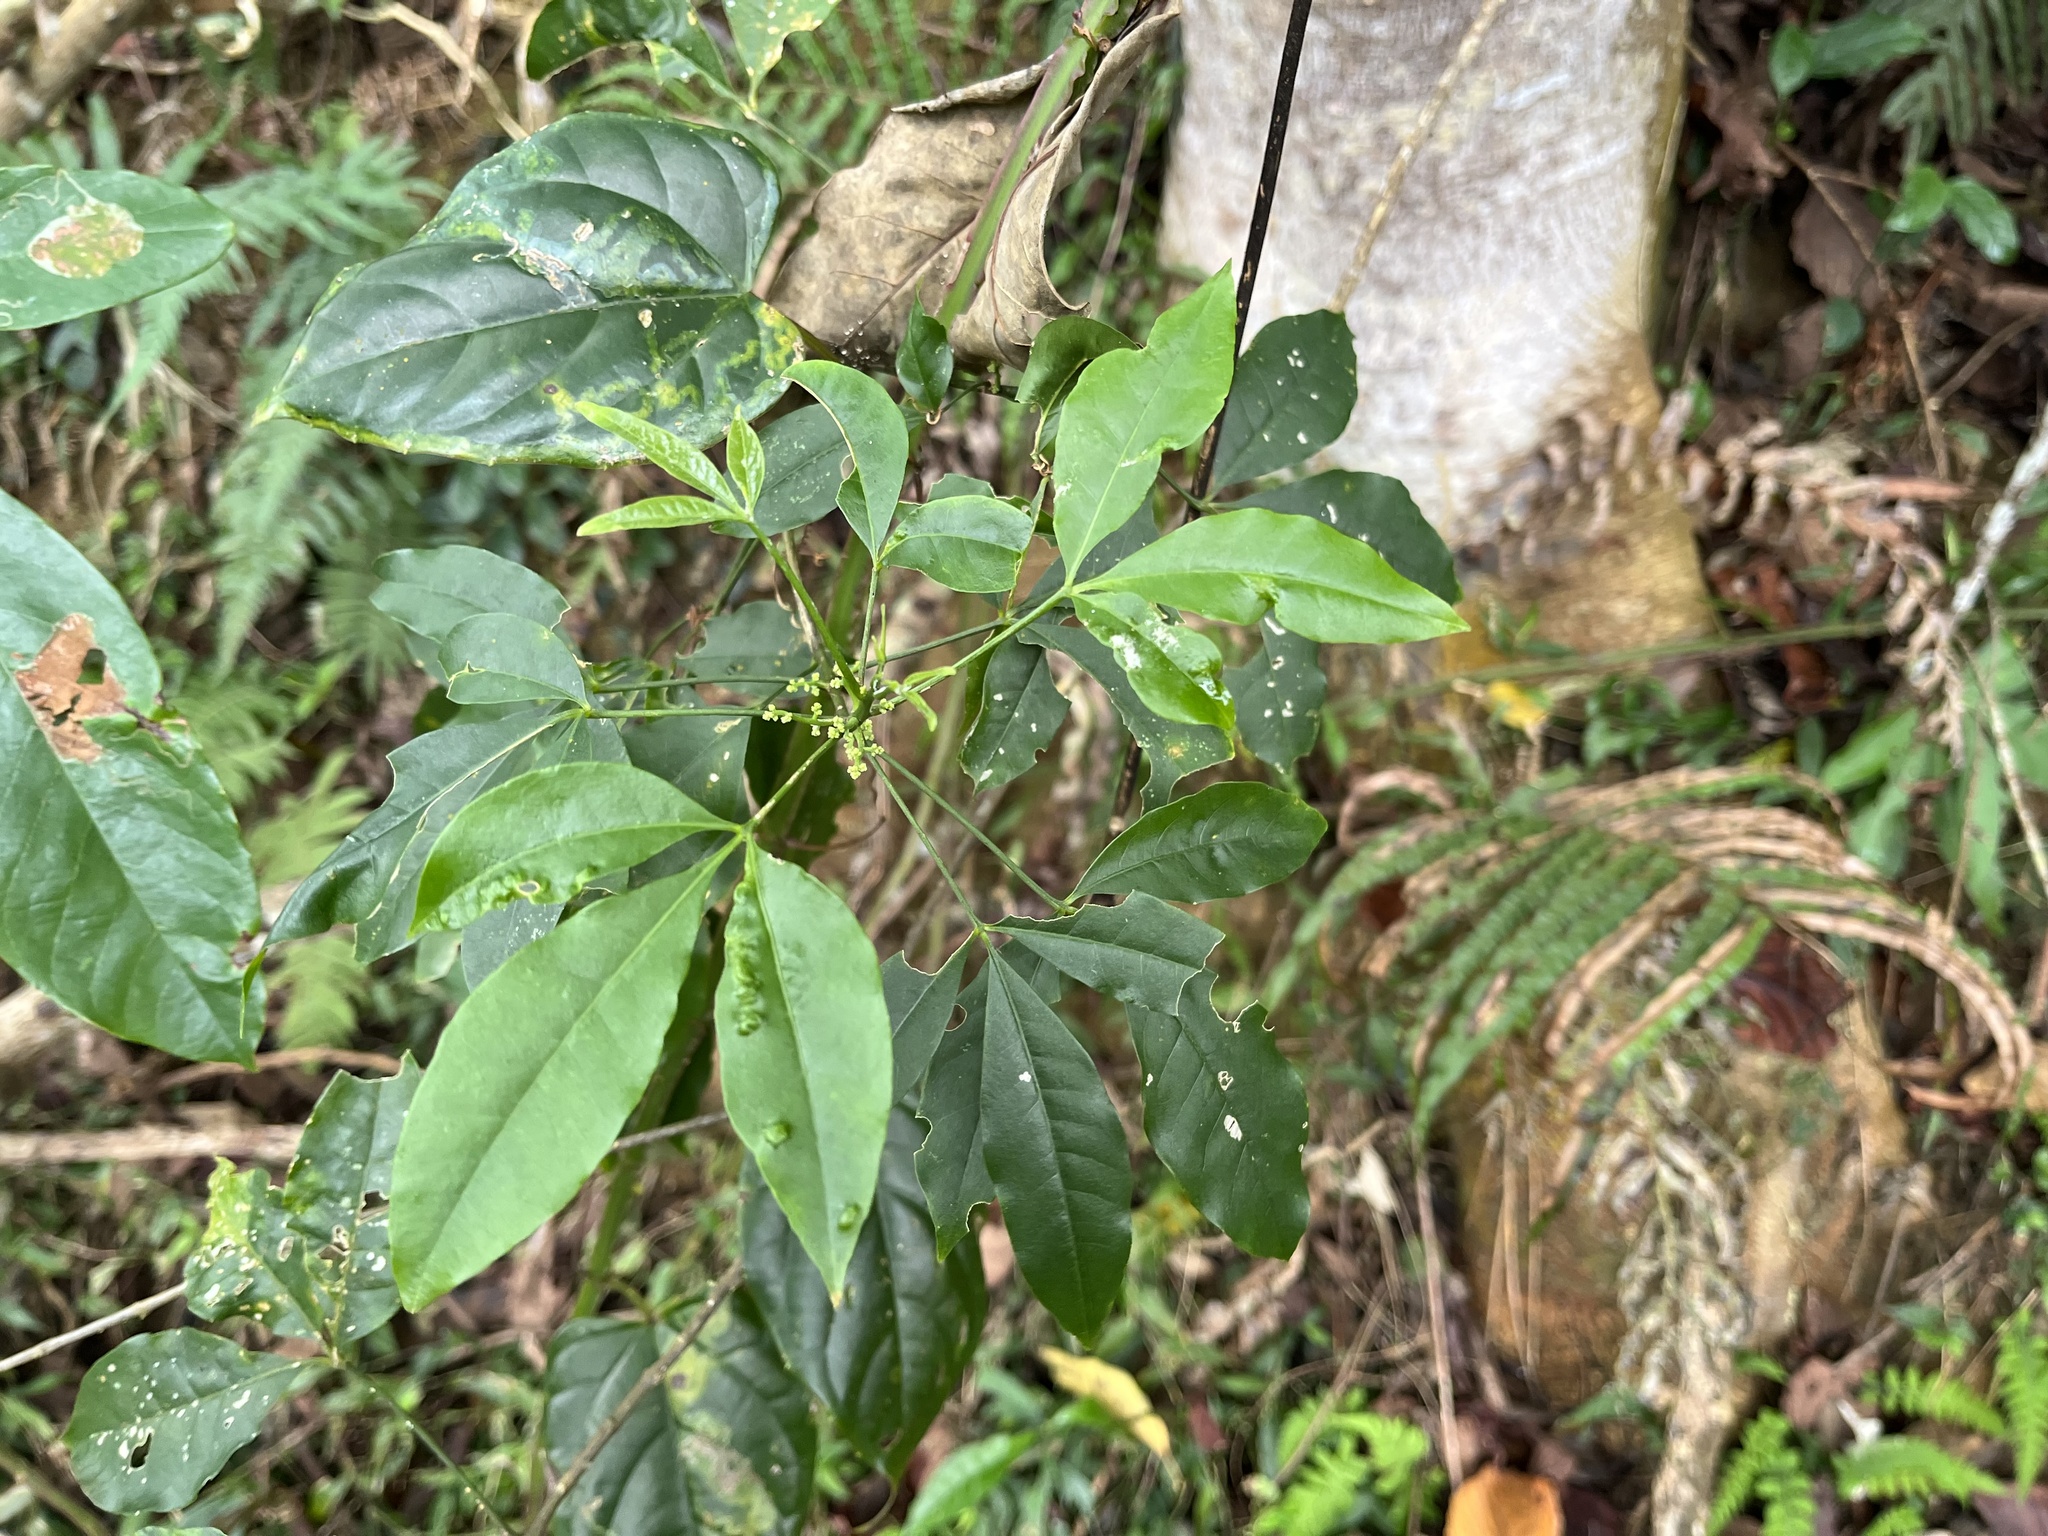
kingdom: Plantae
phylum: Tracheophyta
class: Magnoliopsida
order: Sapindales
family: Rutaceae
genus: Melicope
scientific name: Melicope pteleifolia
